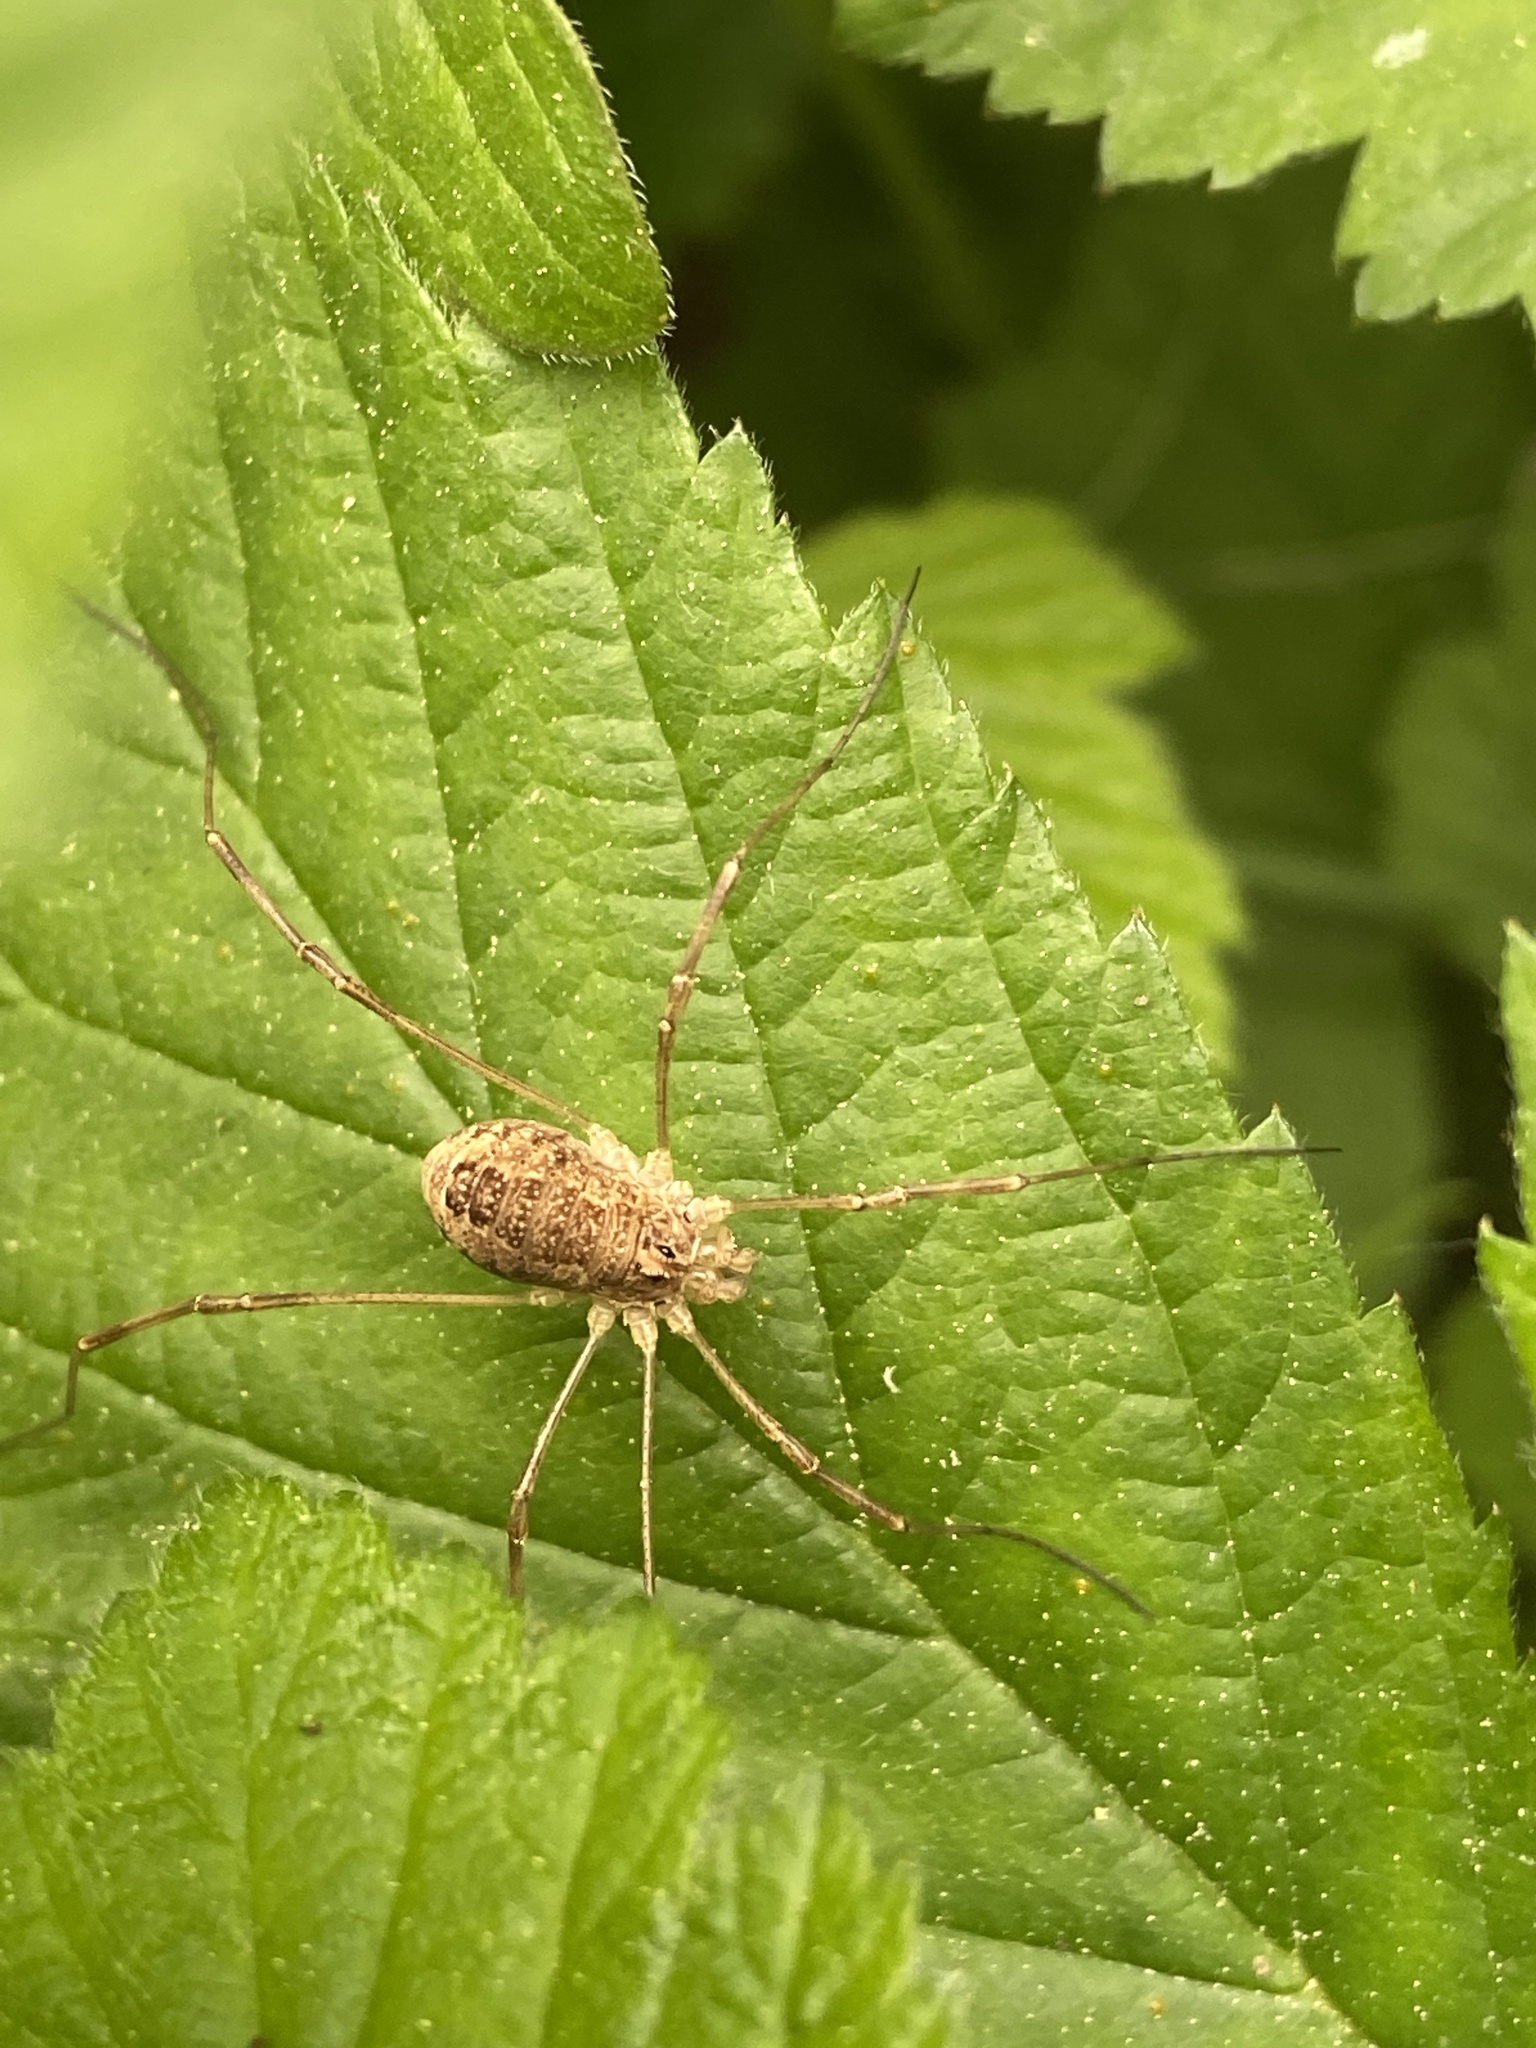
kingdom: Animalia
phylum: Arthropoda
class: Arachnida
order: Opiliones
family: Phalangiidae
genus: Rilaena
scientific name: Rilaena triangularis
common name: Spring harvestman
